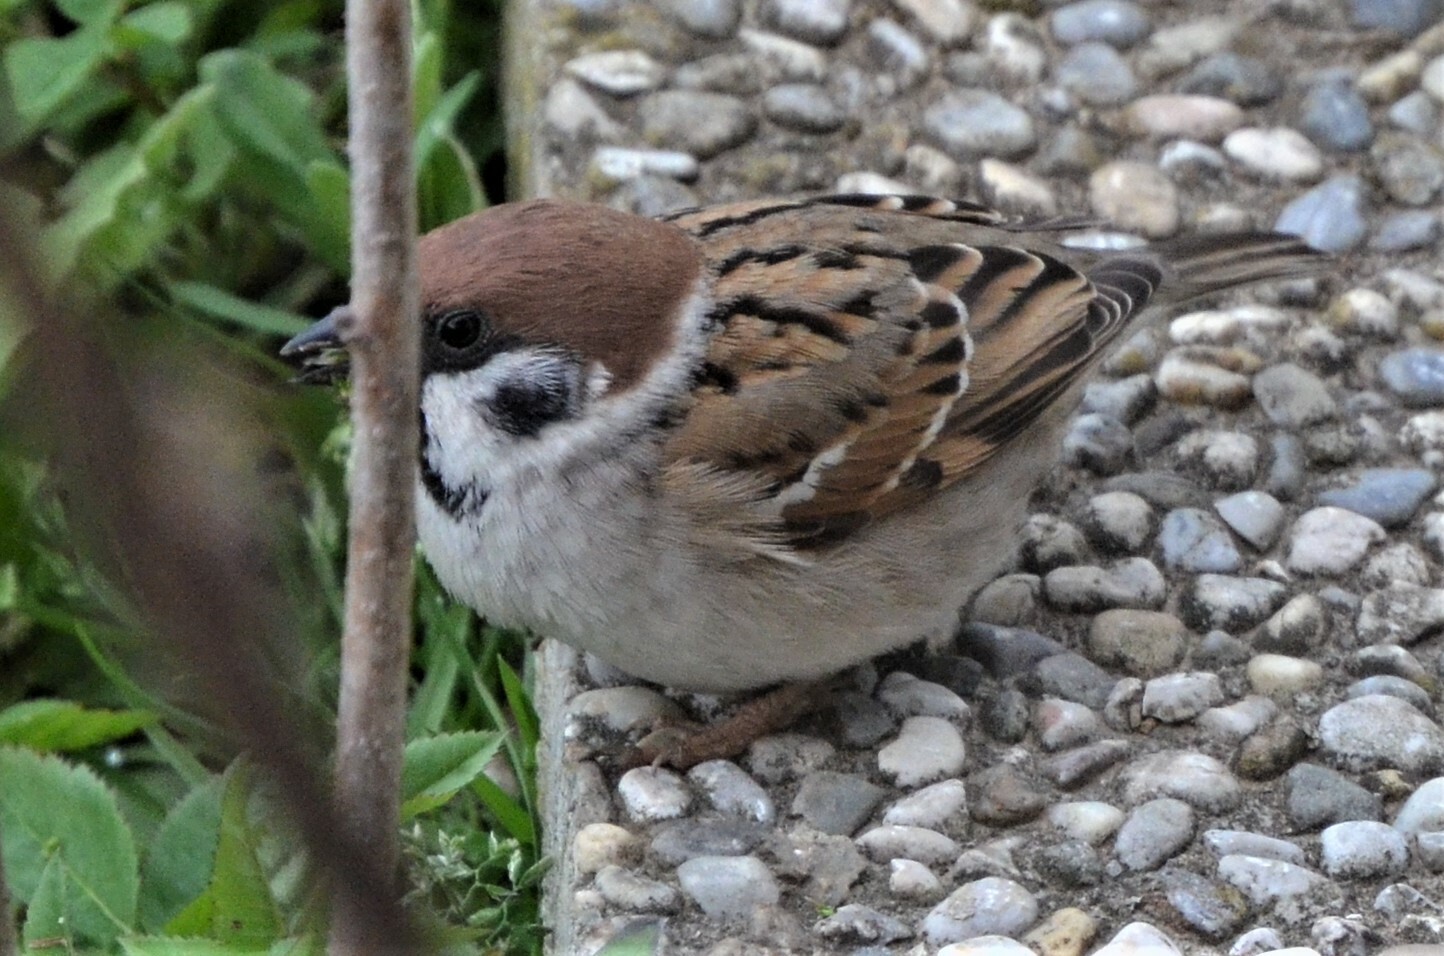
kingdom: Animalia
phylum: Chordata
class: Aves
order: Passeriformes
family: Passeridae
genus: Passer
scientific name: Passer montanus
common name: Eurasian tree sparrow
